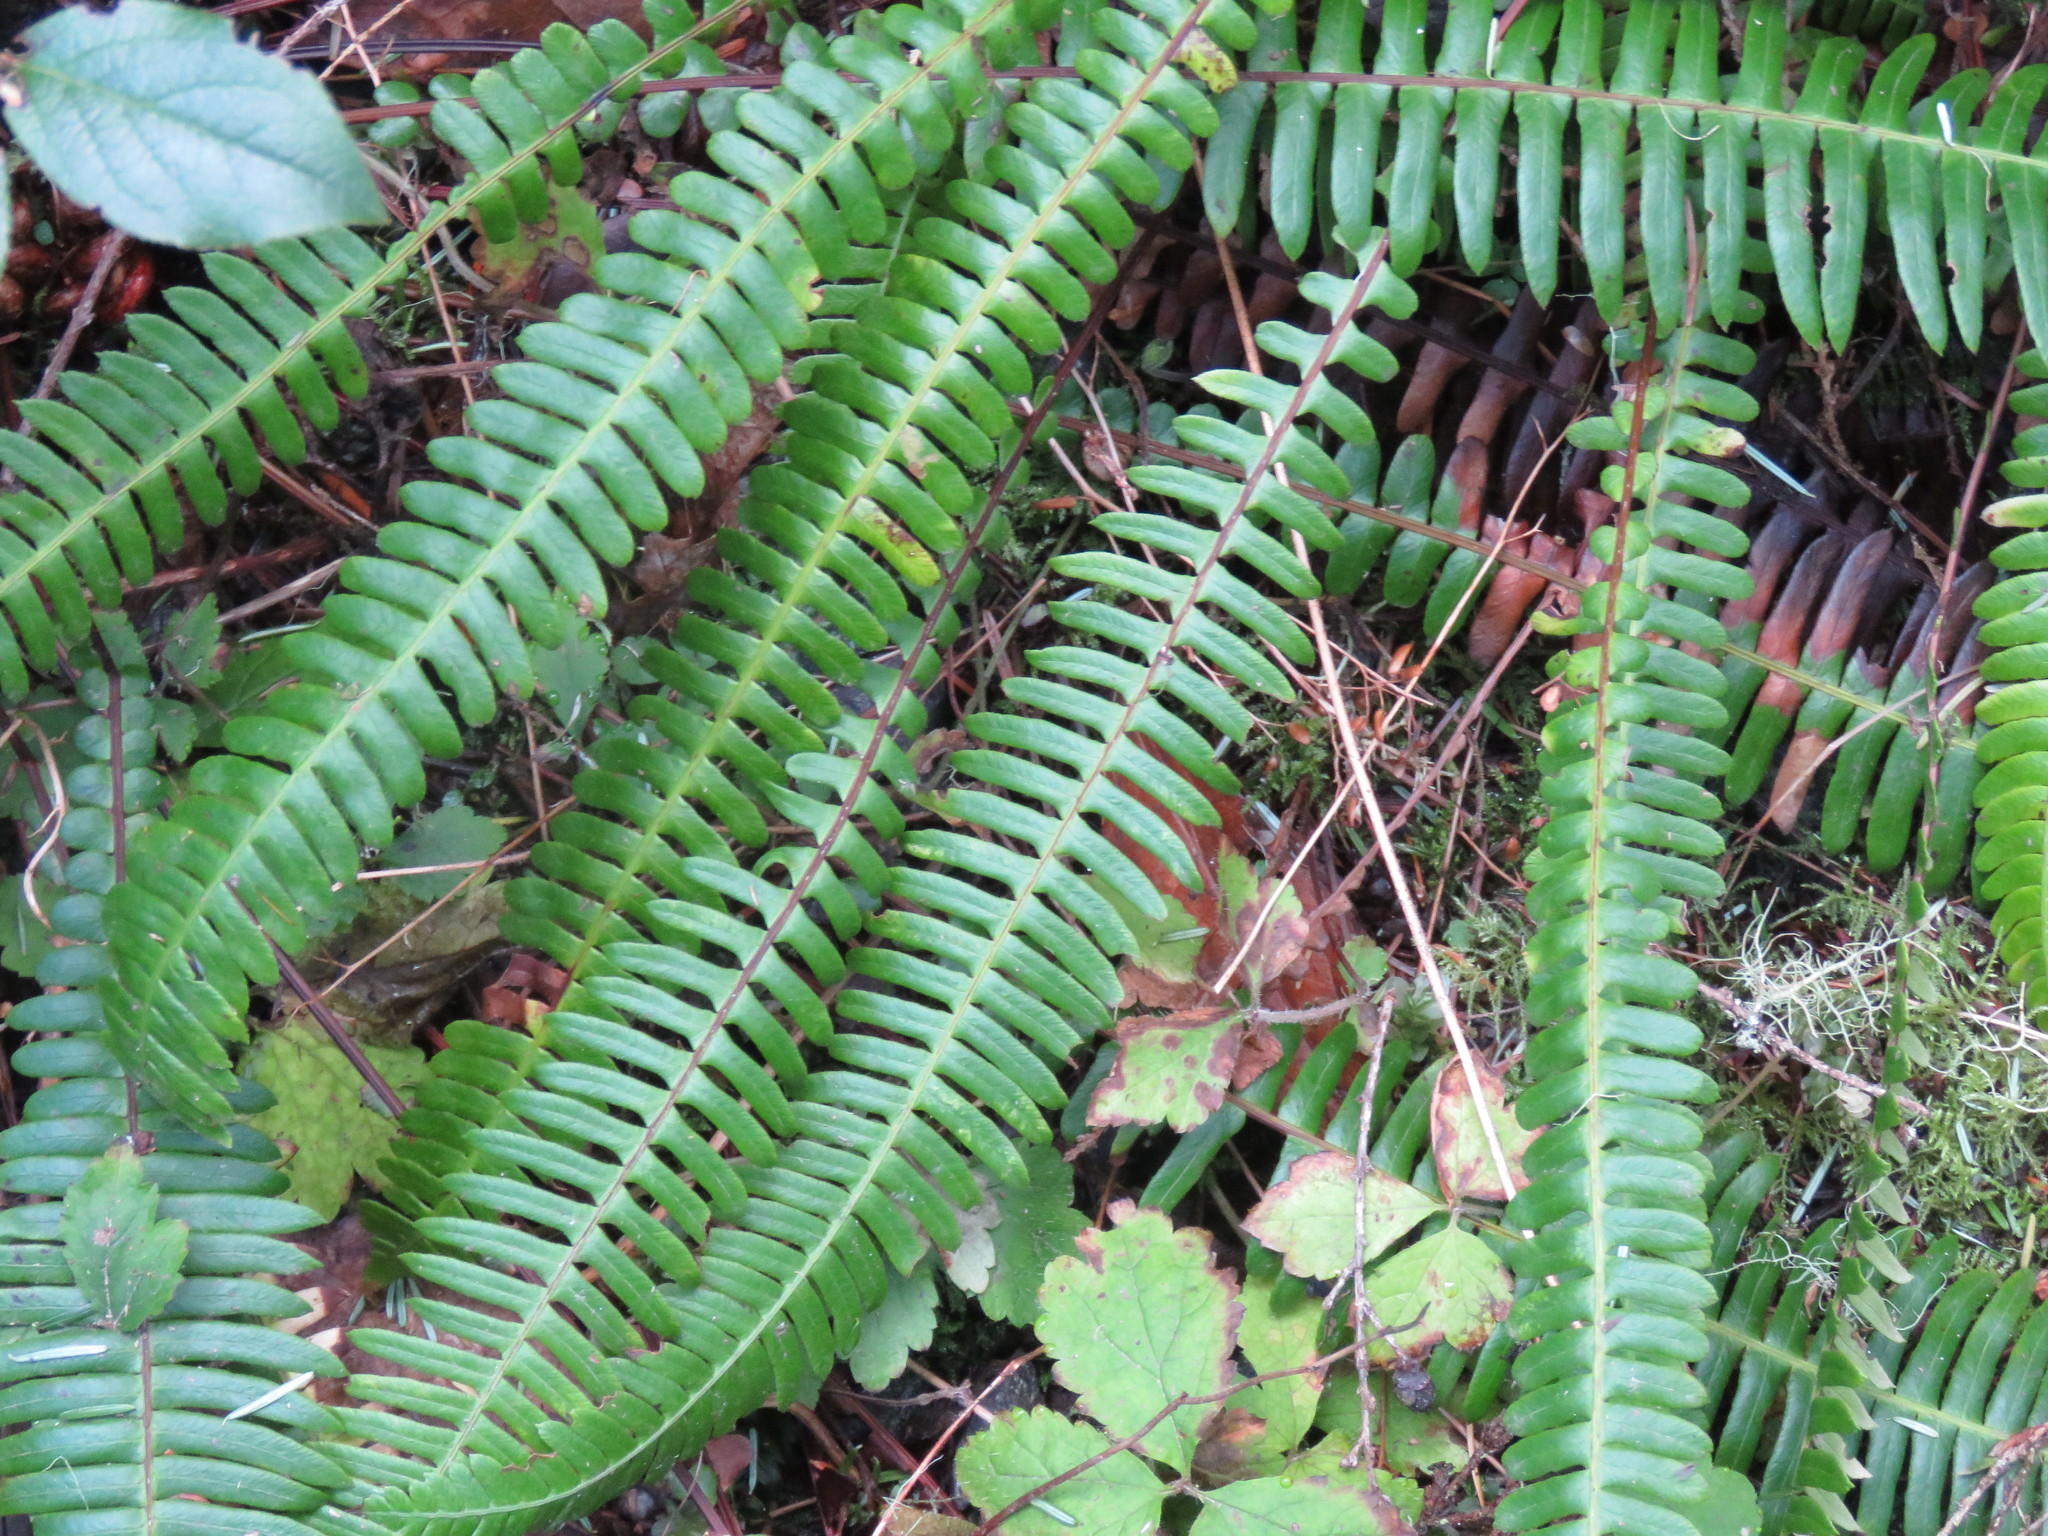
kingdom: Plantae
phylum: Tracheophyta
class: Polypodiopsida
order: Polypodiales
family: Blechnaceae
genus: Struthiopteris
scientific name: Struthiopteris spicant
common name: Deer fern
